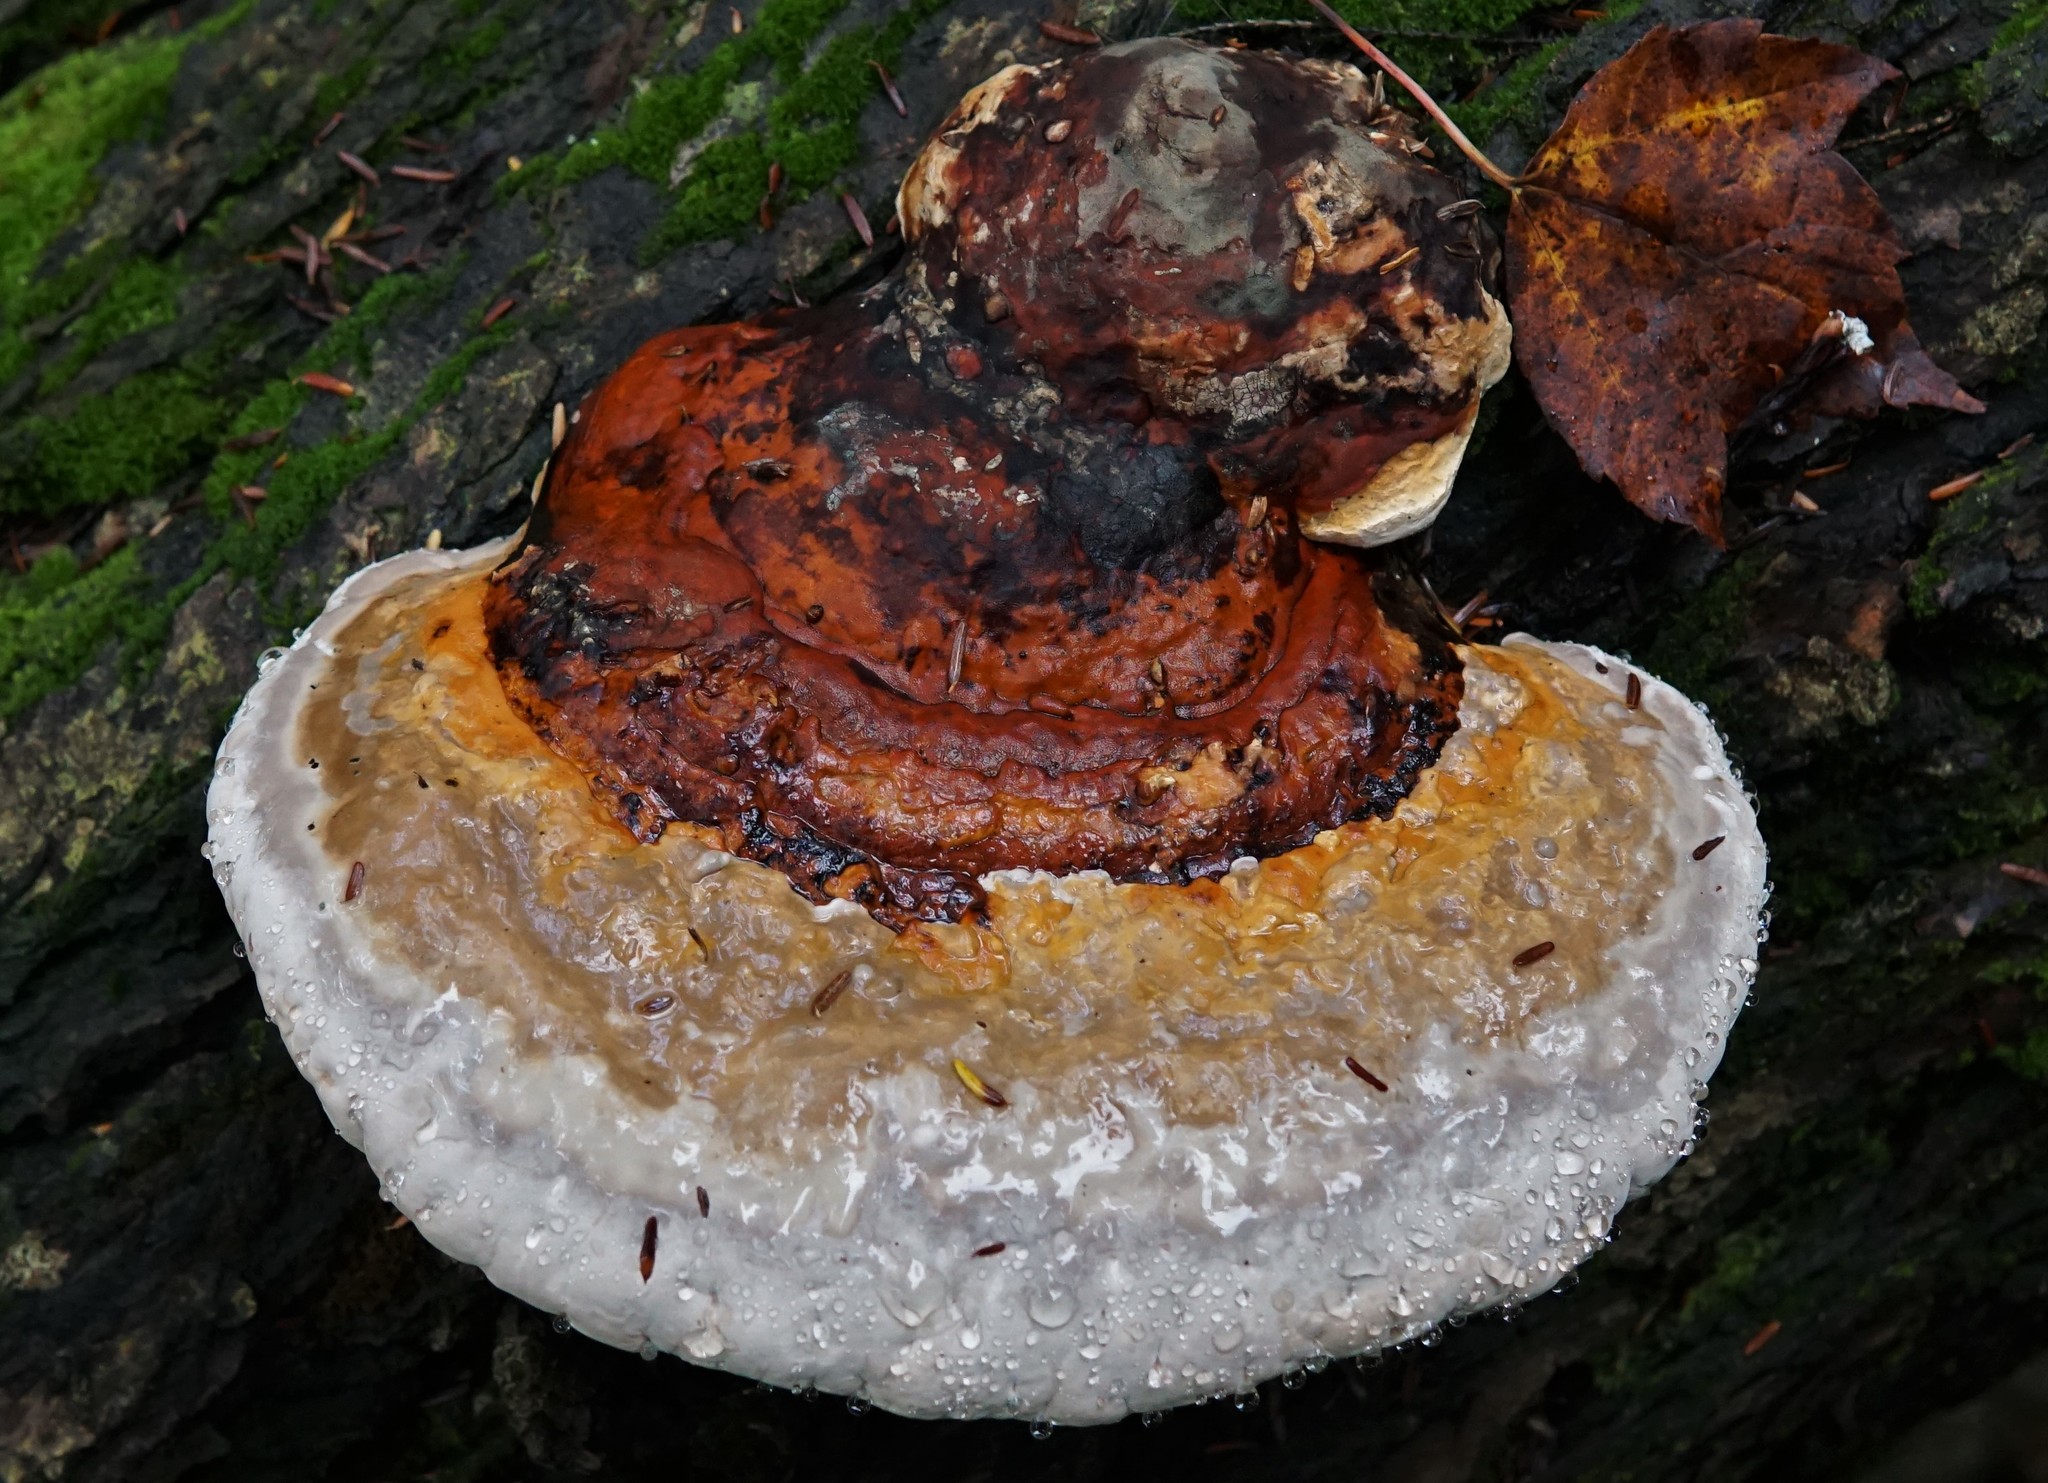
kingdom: Fungi
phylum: Basidiomycota
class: Agaricomycetes
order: Polyporales
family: Fomitopsidaceae
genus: Fomitopsis
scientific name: Fomitopsis mounceae
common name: Northern red belt
